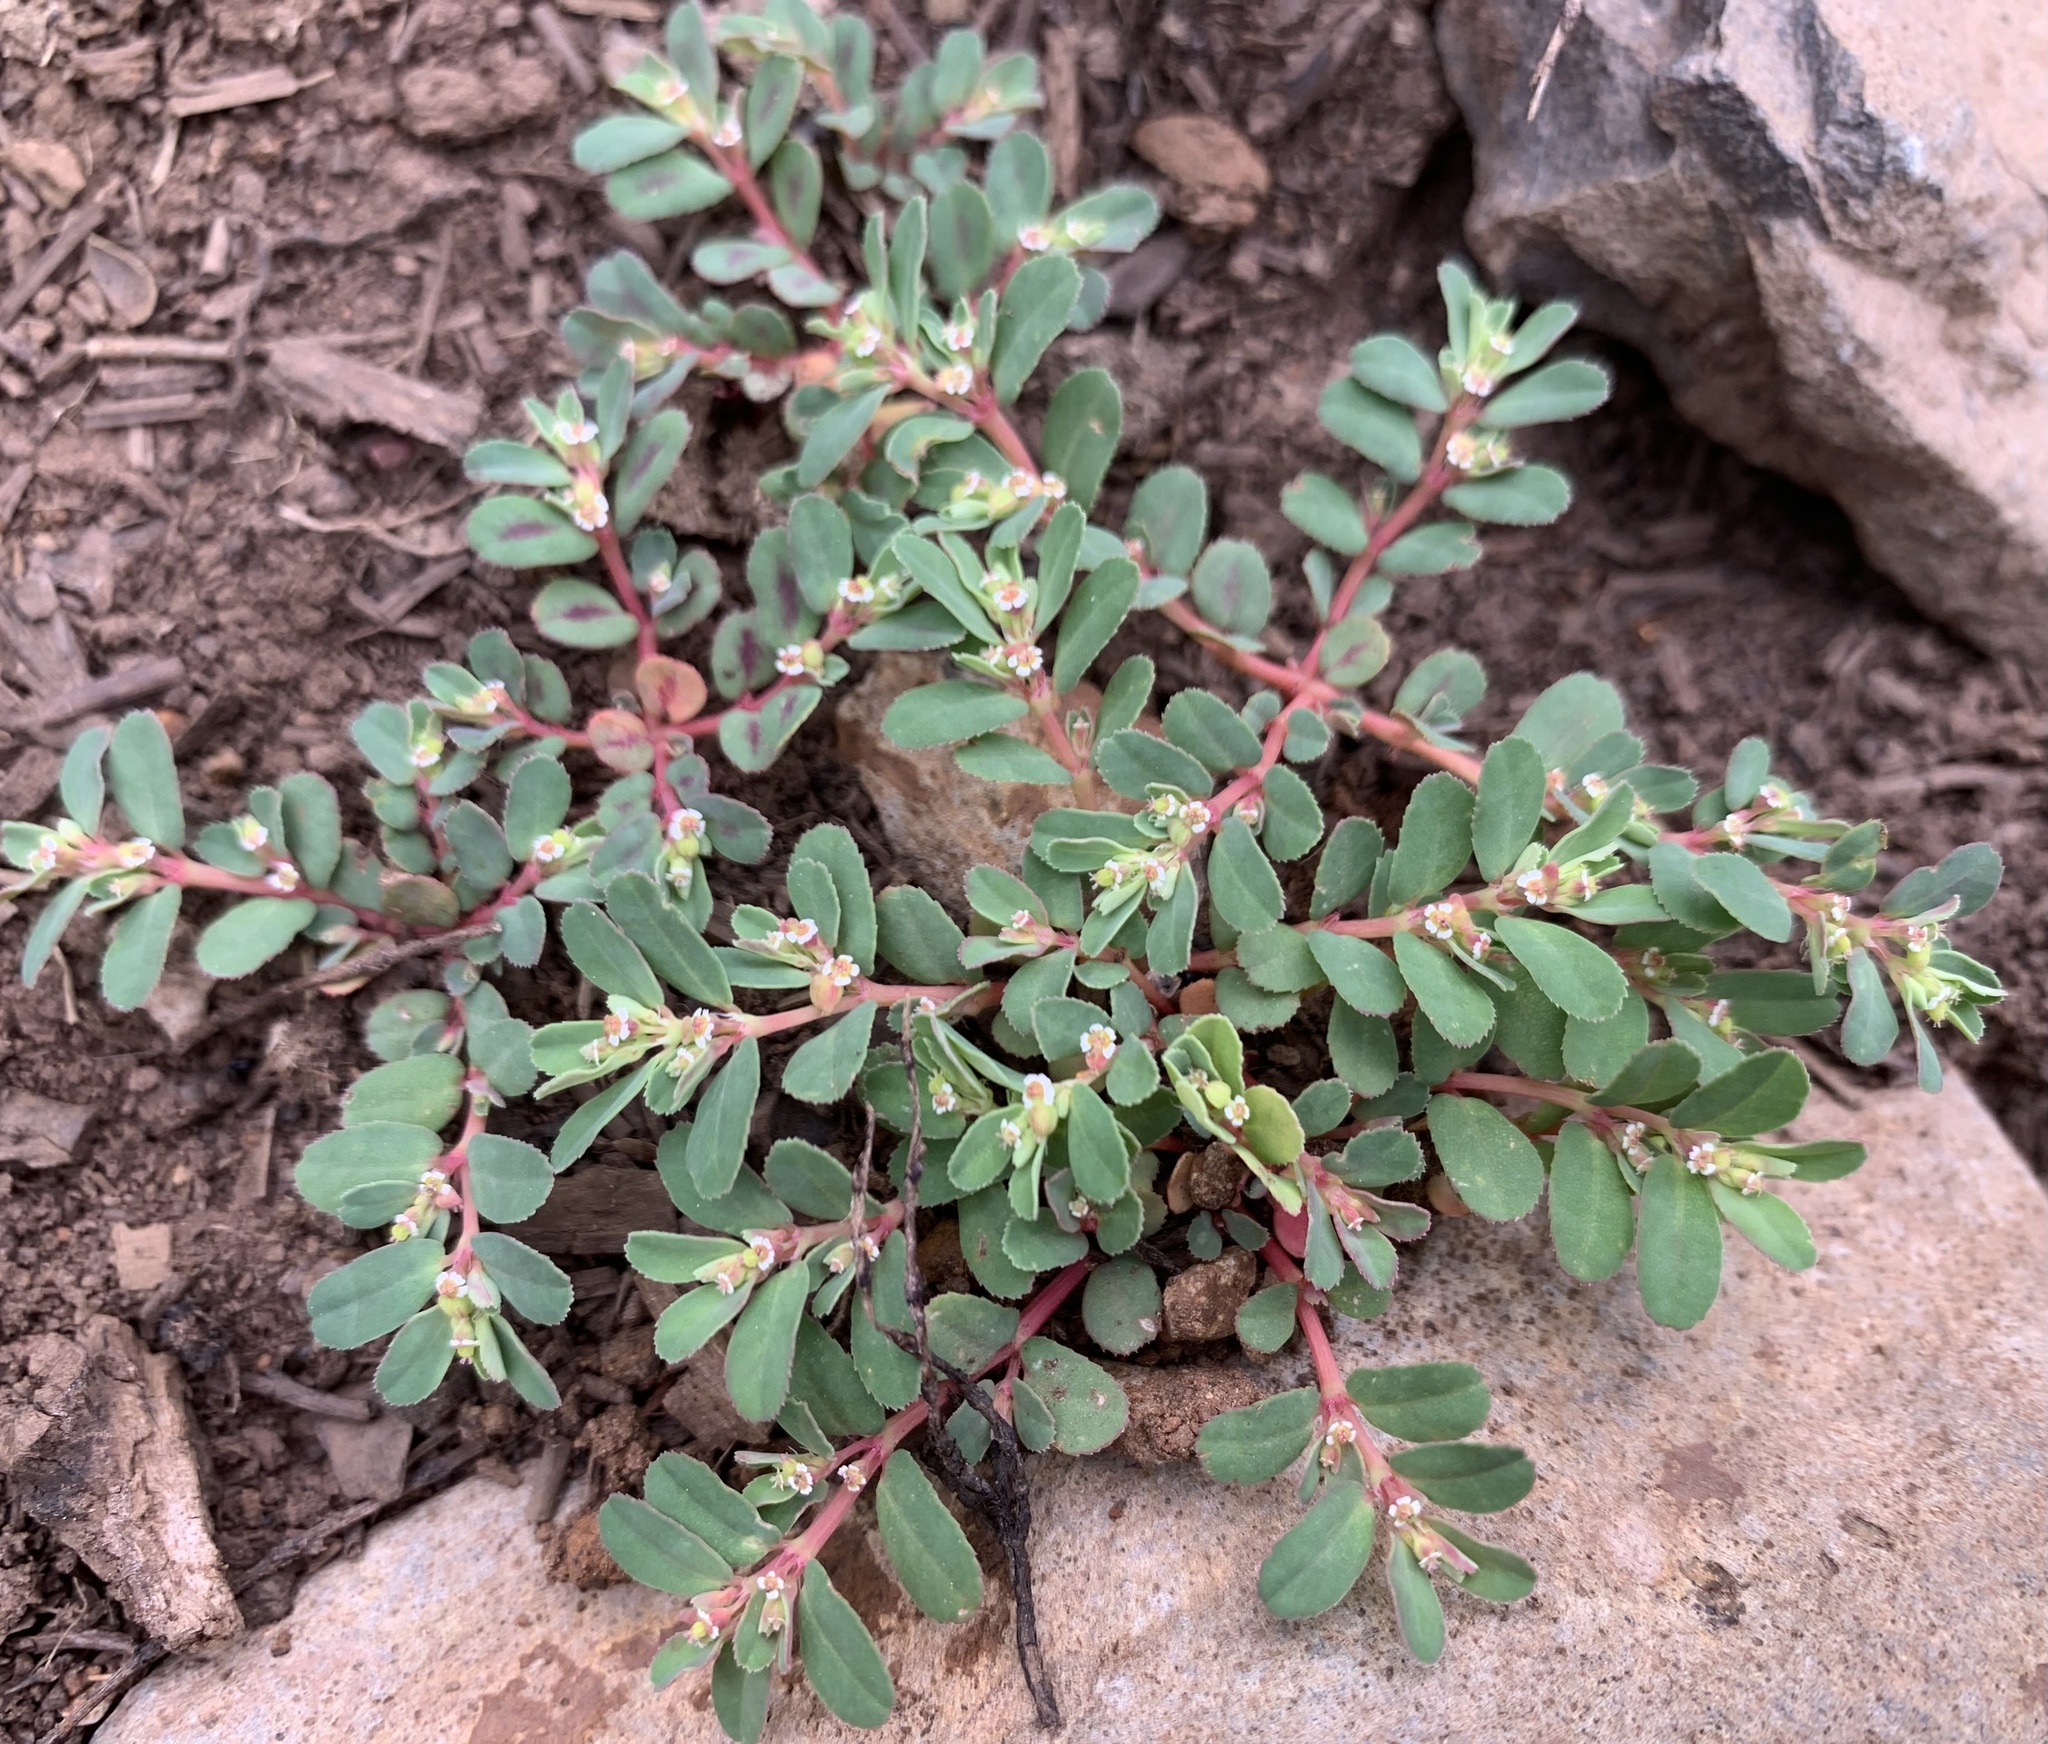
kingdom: Plantae
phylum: Tracheophyta
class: Magnoliopsida
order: Malpighiales
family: Euphorbiaceae
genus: Euphorbia
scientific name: Euphorbia serpillifolia
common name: Thyme-leaf spurge
